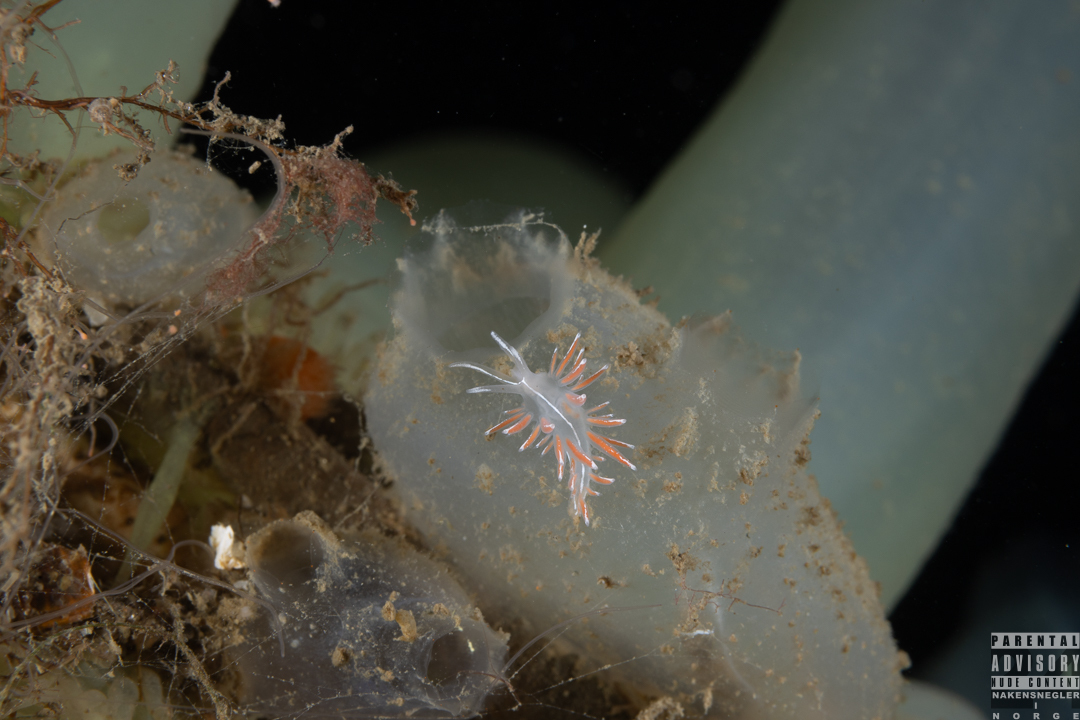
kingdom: Animalia
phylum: Mollusca
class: Gastropoda
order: Nudibranchia
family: Coryphellidae
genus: Coryphella
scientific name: Coryphella lineata
